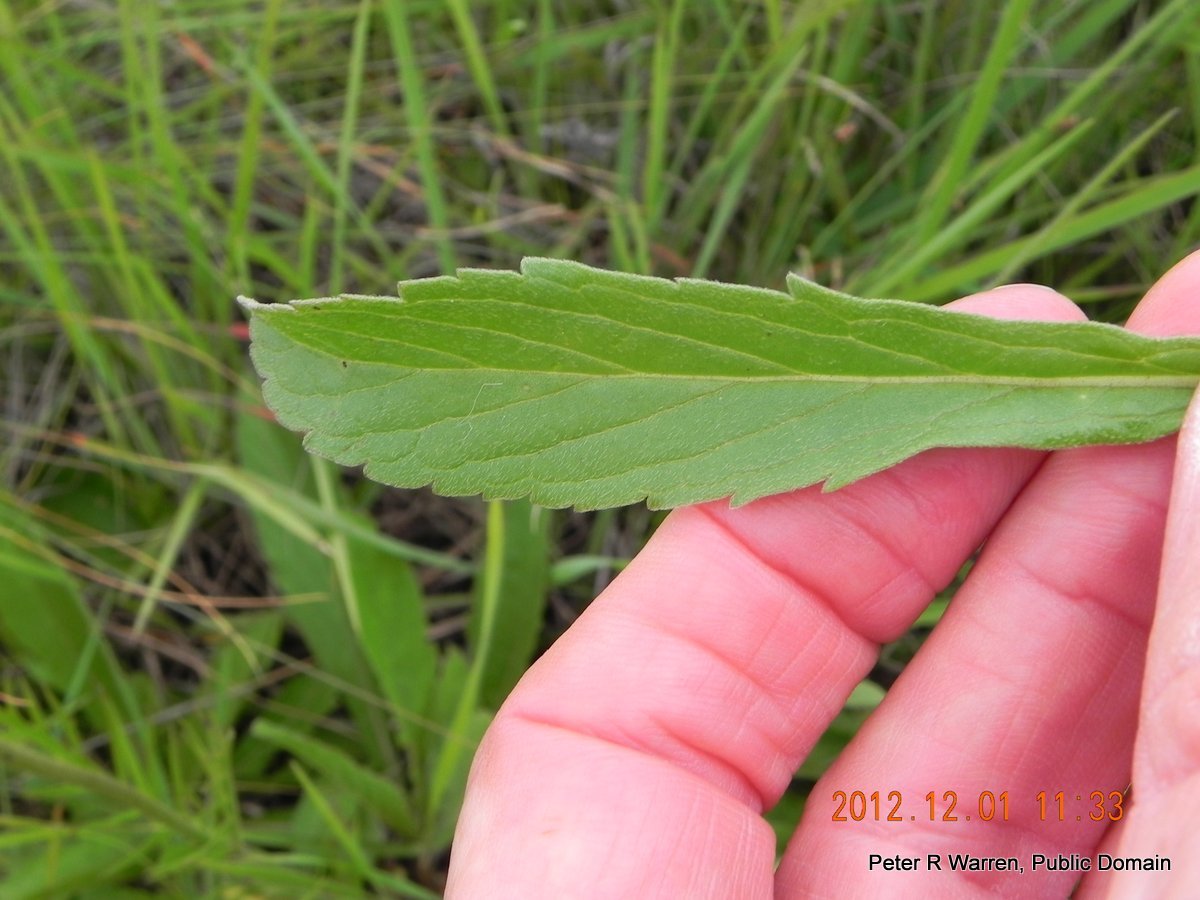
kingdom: Plantae
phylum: Tracheophyta
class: Magnoliopsida
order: Dipsacales
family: Caprifoliaceae
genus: Scabiosa
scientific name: Scabiosa columbaria
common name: Small scabious
